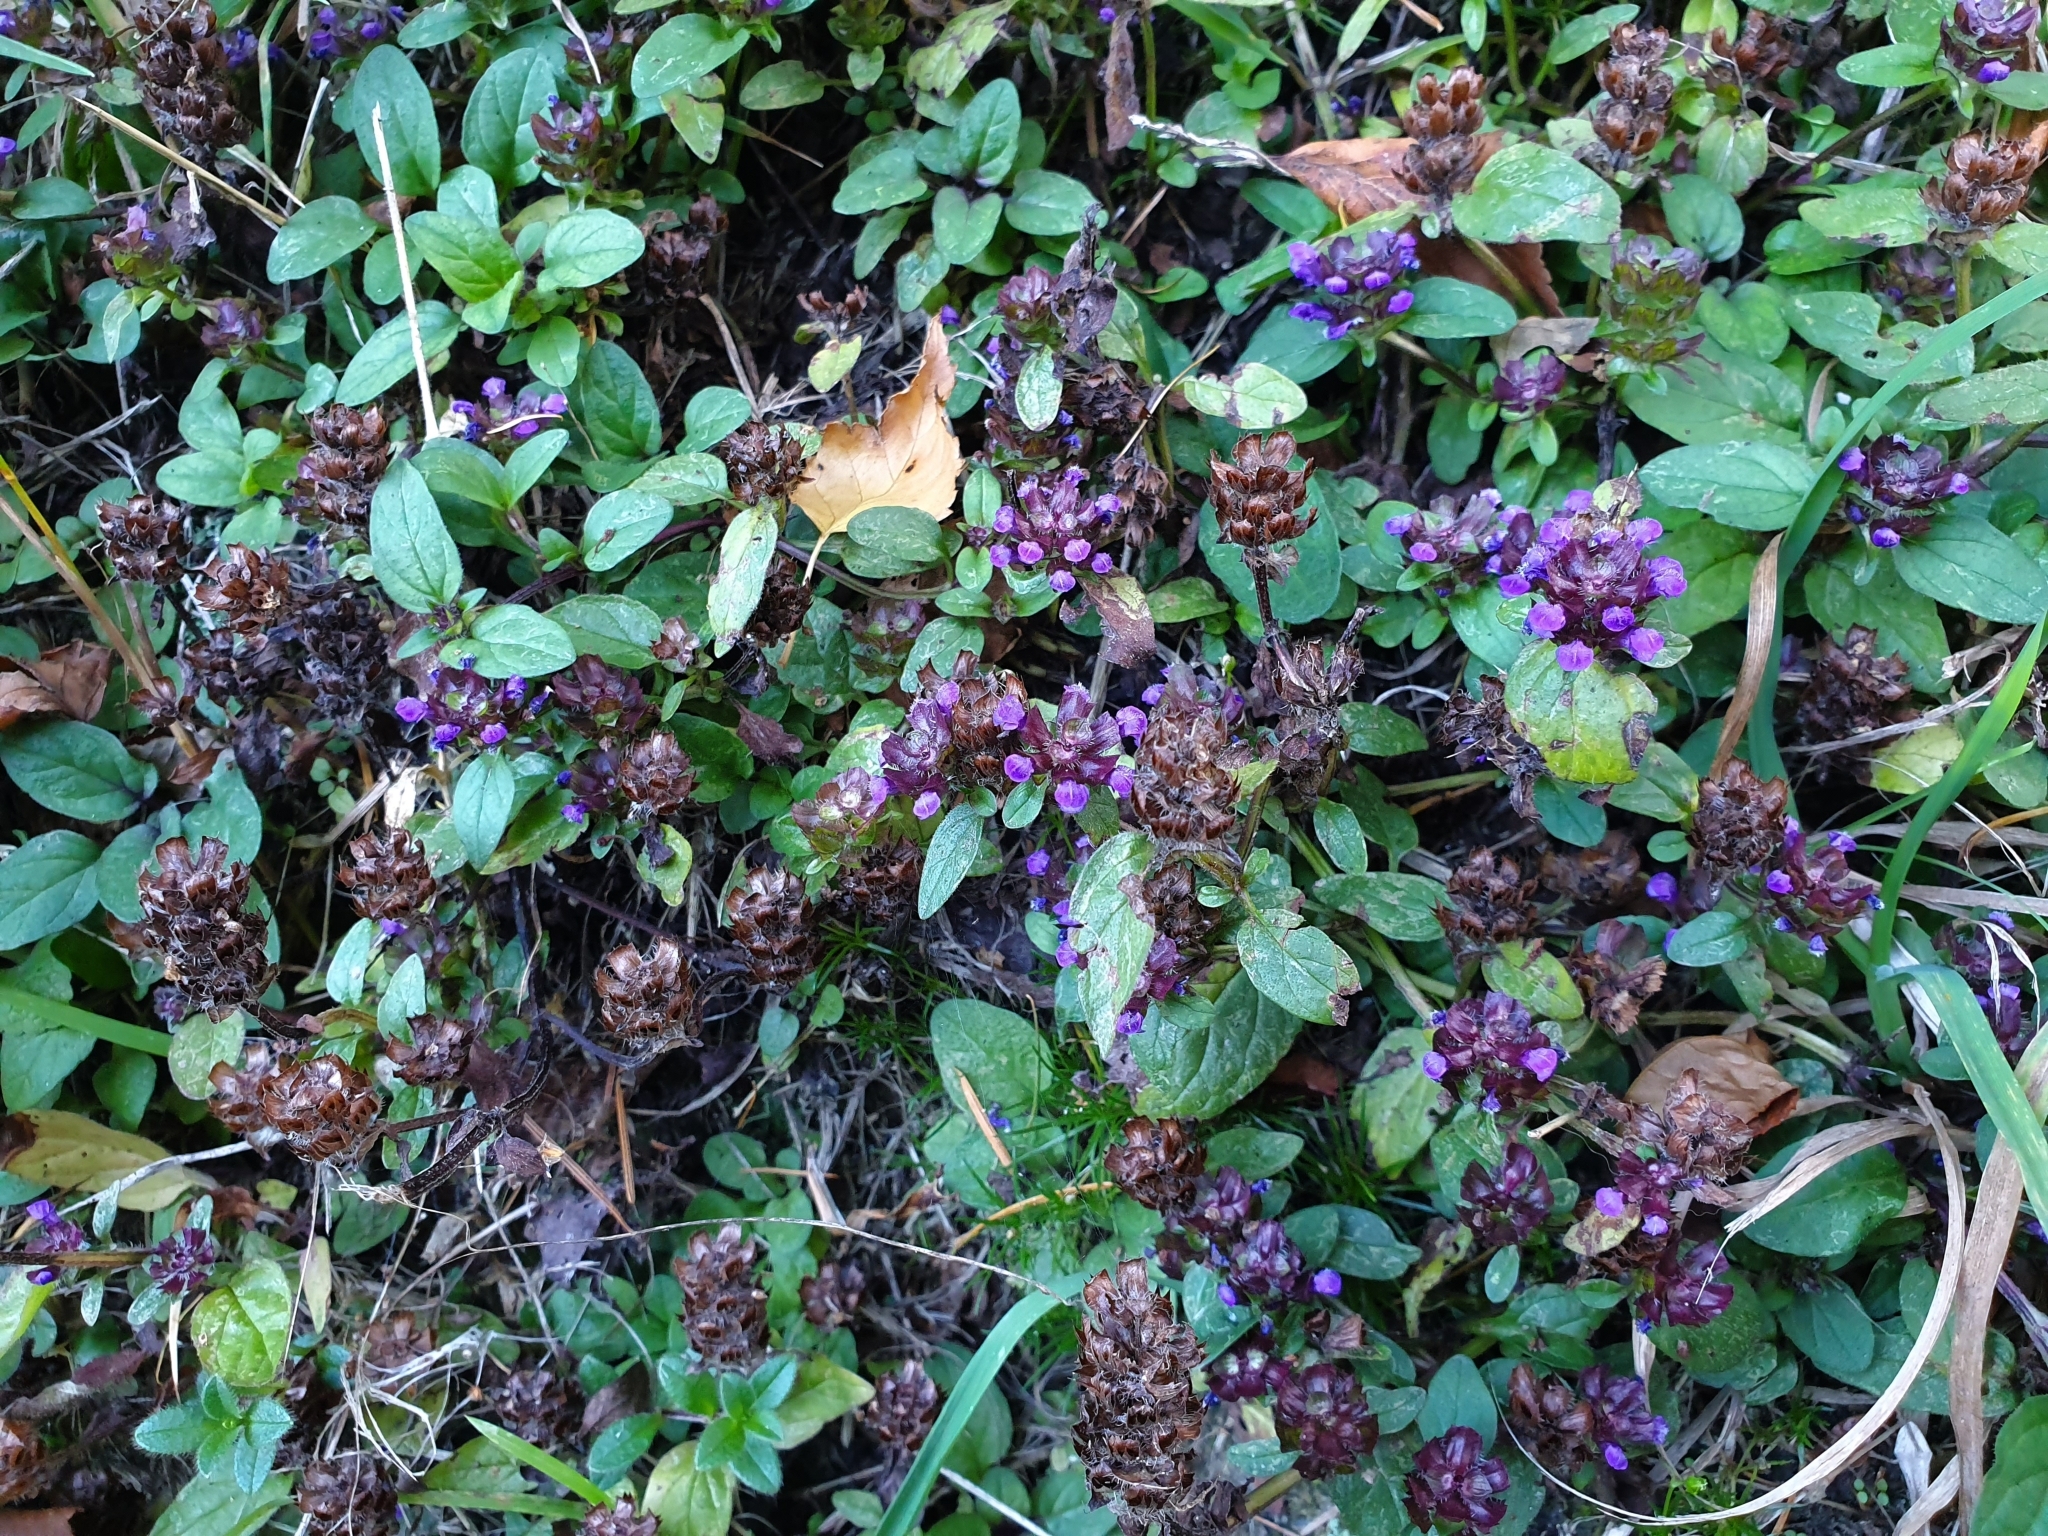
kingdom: Plantae
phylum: Tracheophyta
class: Magnoliopsida
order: Lamiales
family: Lamiaceae
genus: Prunella
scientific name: Prunella vulgaris
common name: Heal-all
